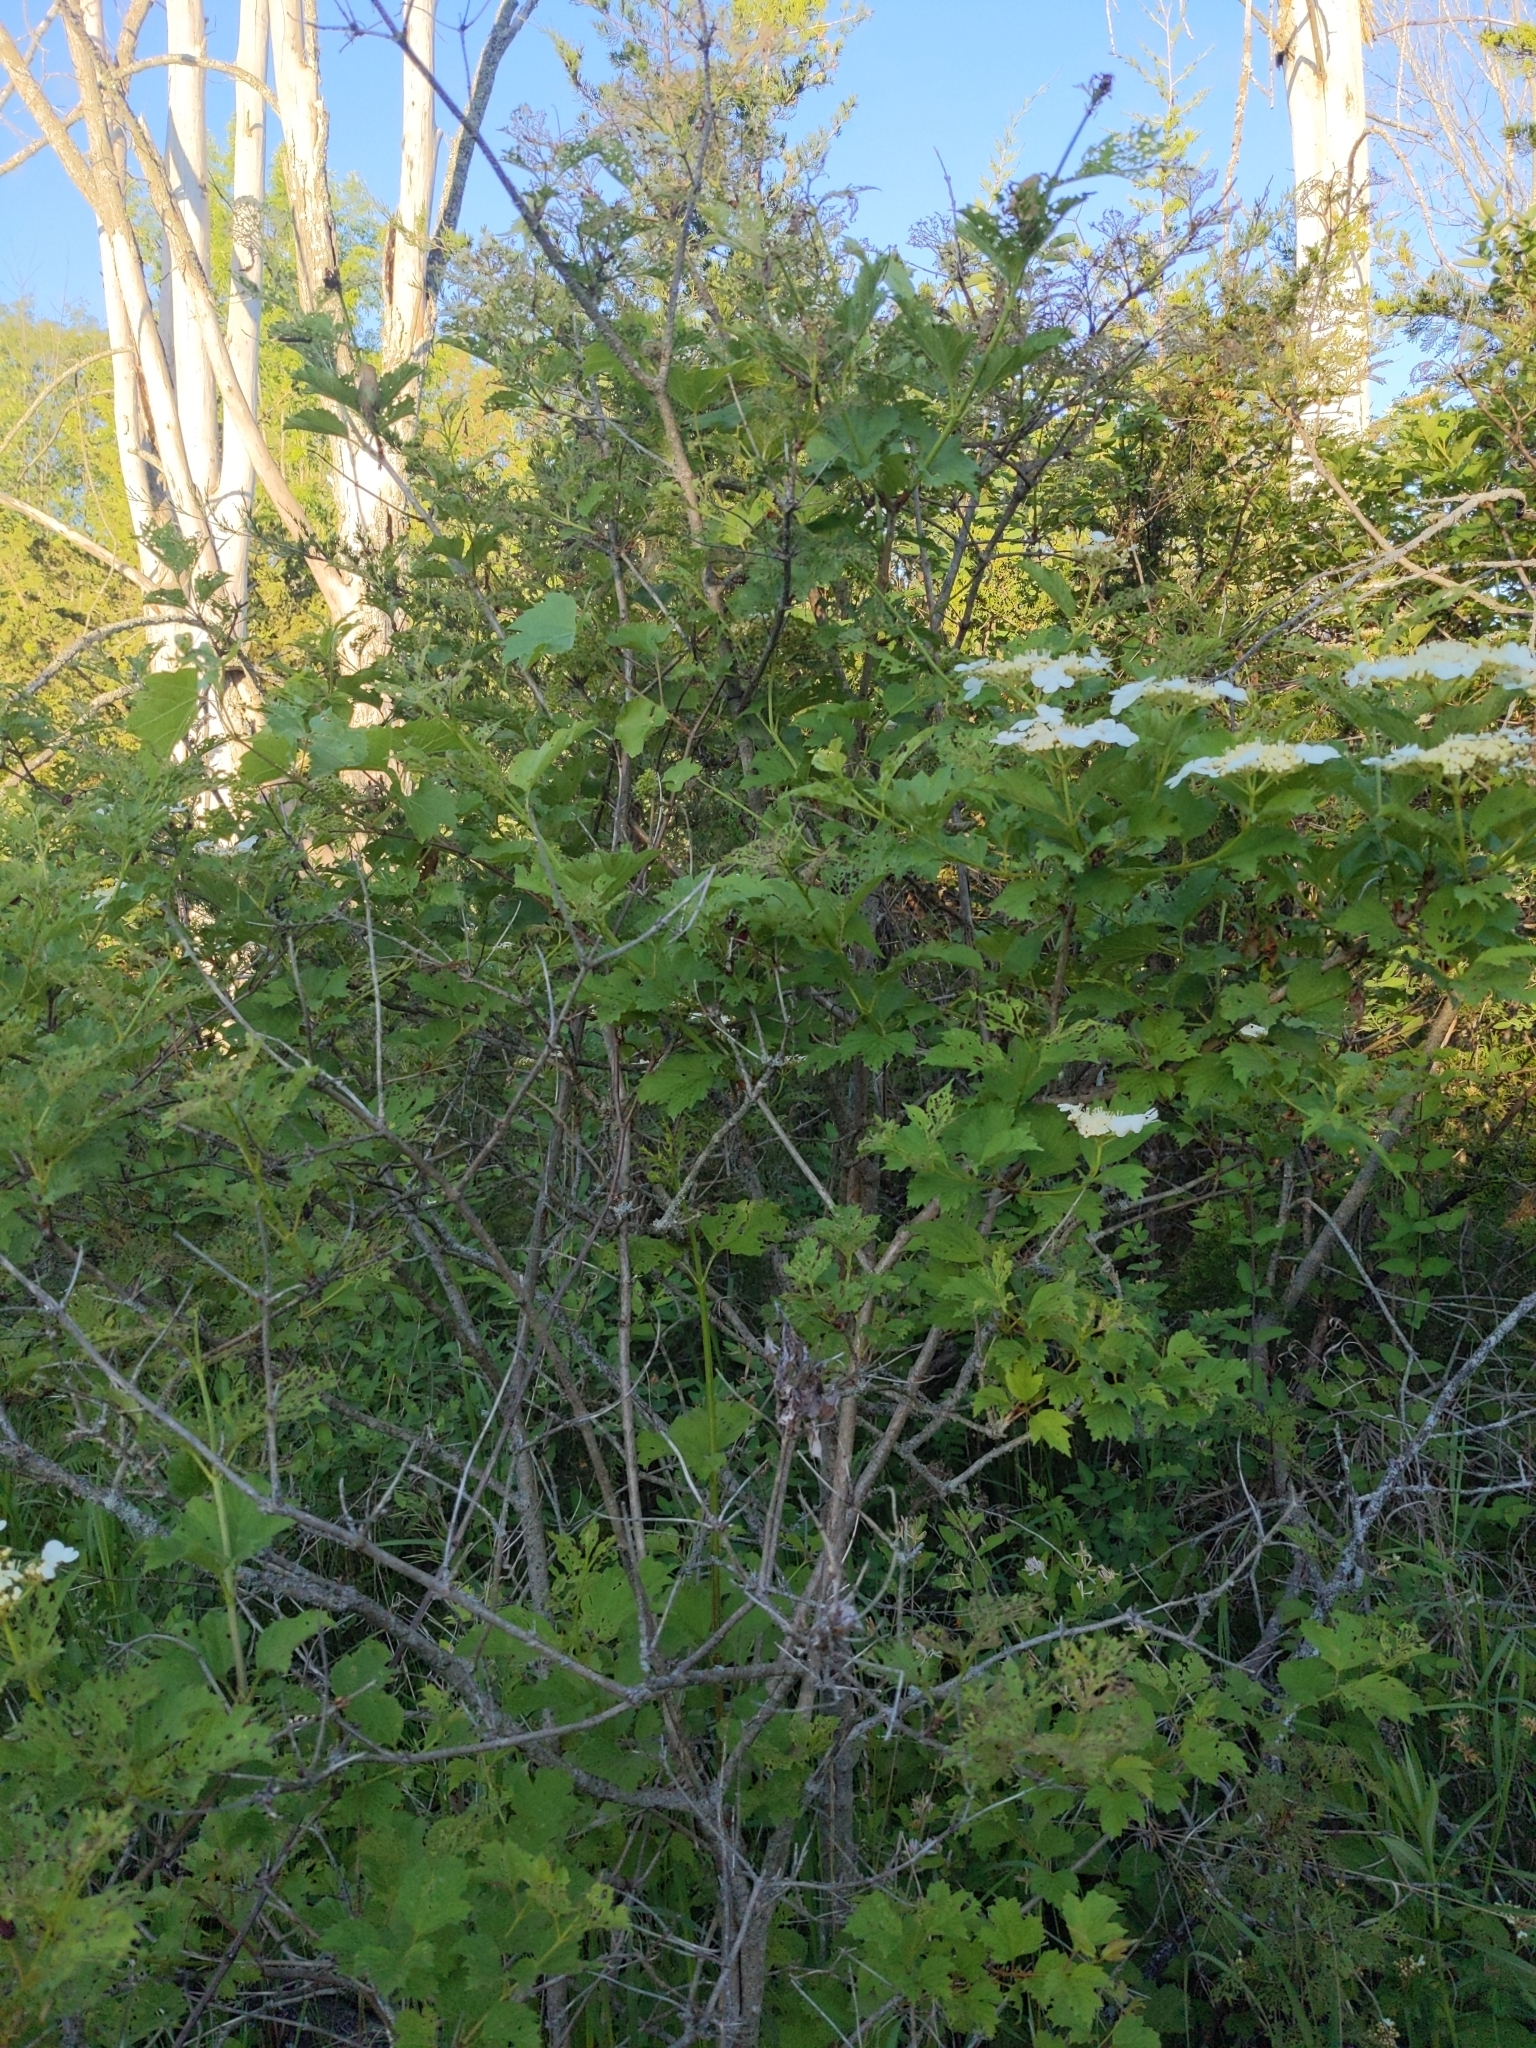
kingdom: Plantae
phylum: Tracheophyta
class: Magnoliopsida
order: Dipsacales
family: Viburnaceae
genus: Viburnum
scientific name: Viburnum opulus
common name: Guelder-rose
